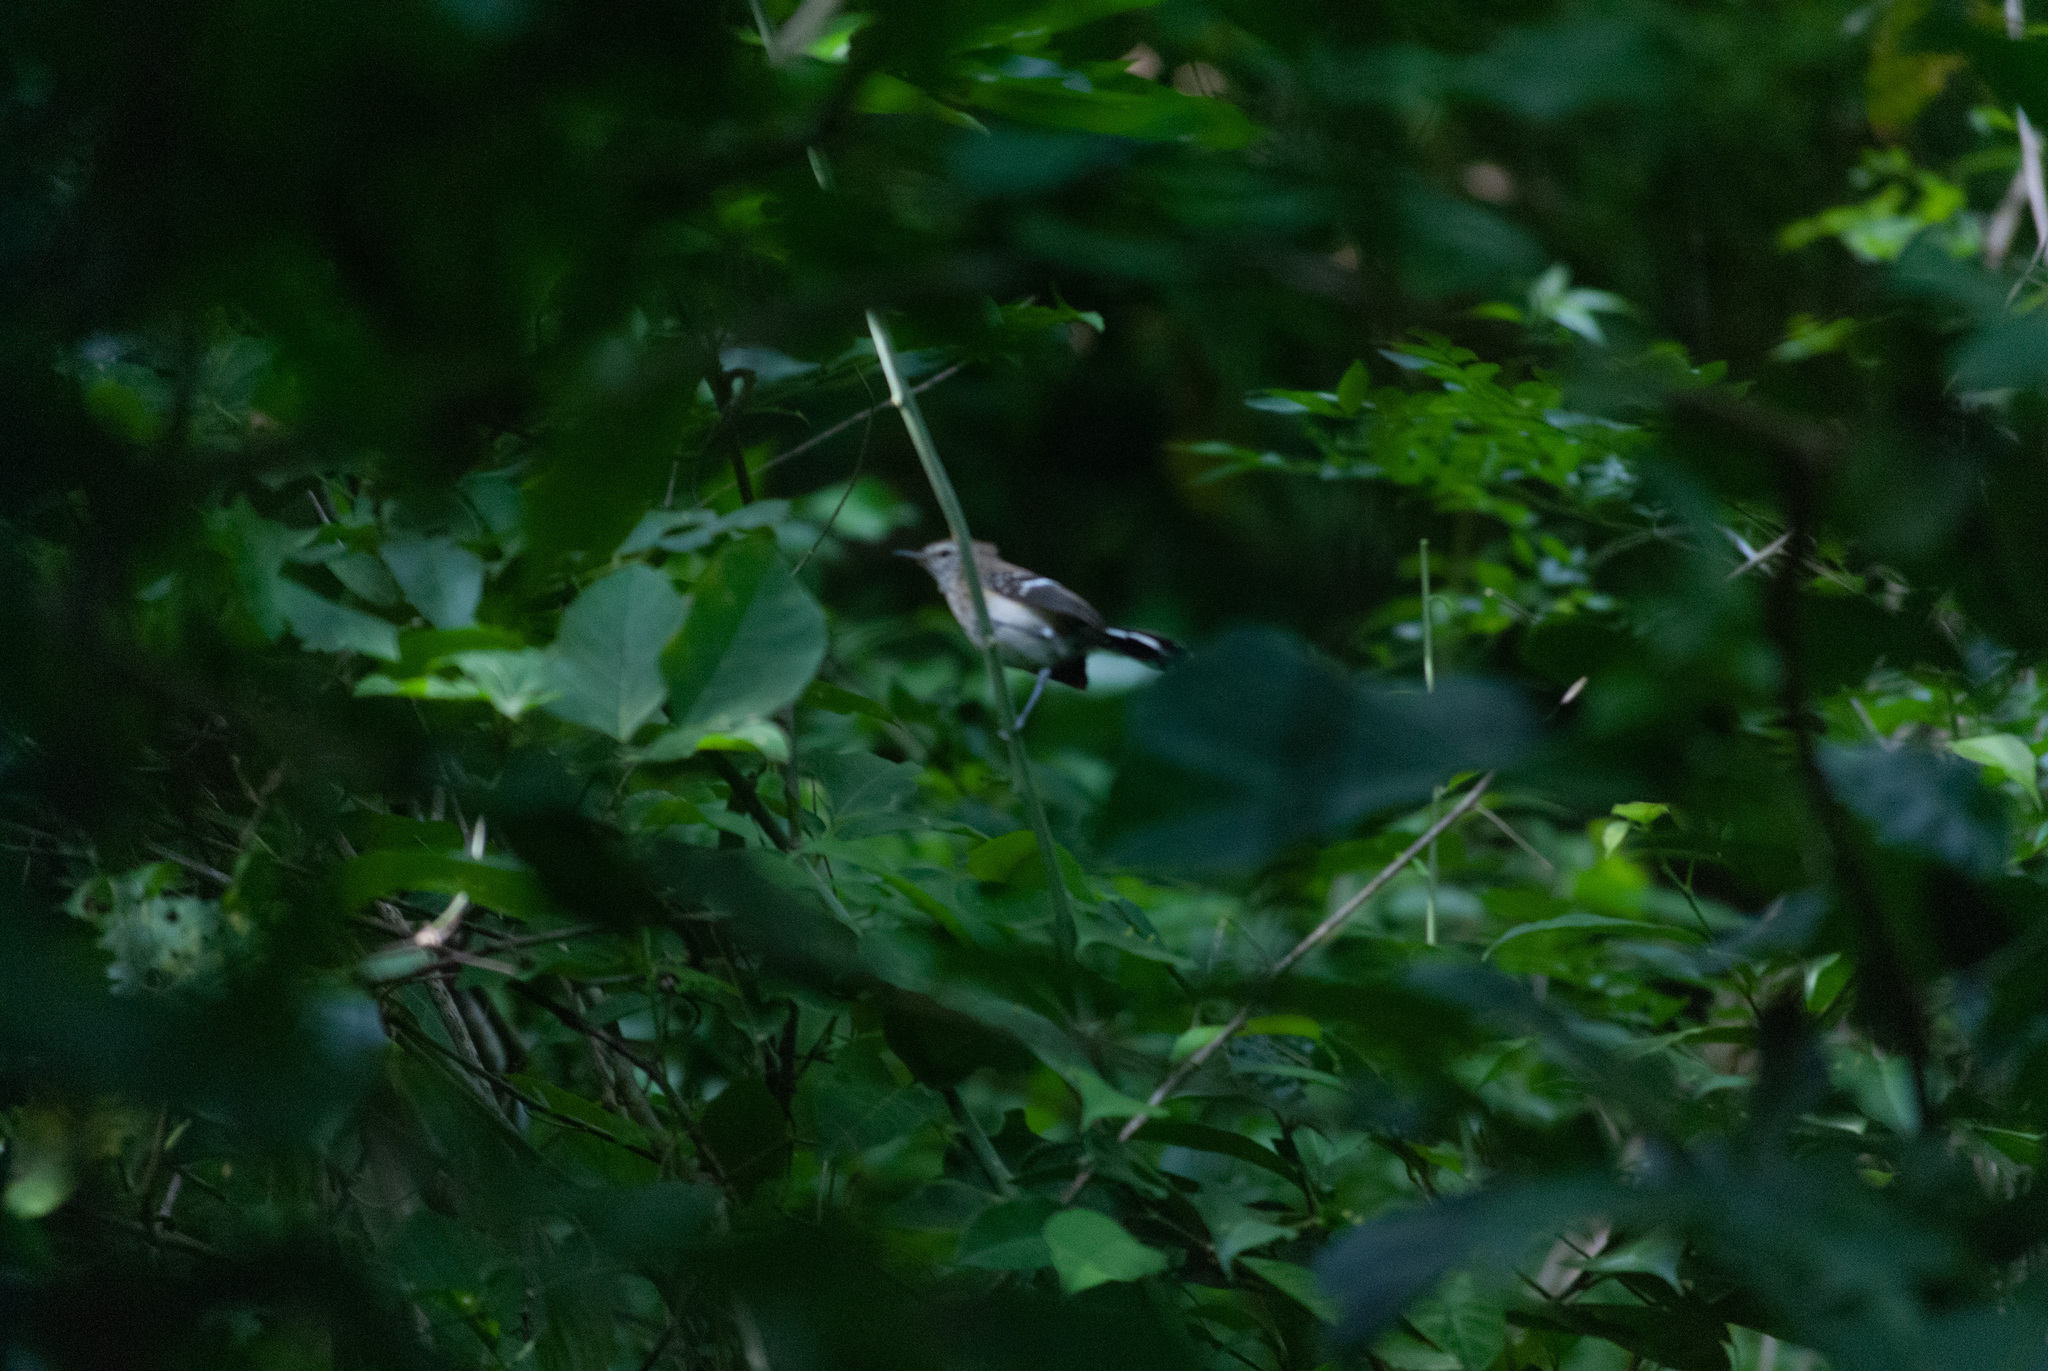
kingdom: Animalia
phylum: Chordata
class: Aves
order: Passeriformes
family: Thamnophilidae
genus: Formicivora
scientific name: Formicivora intermedia
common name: Northern white-fringed antwren
